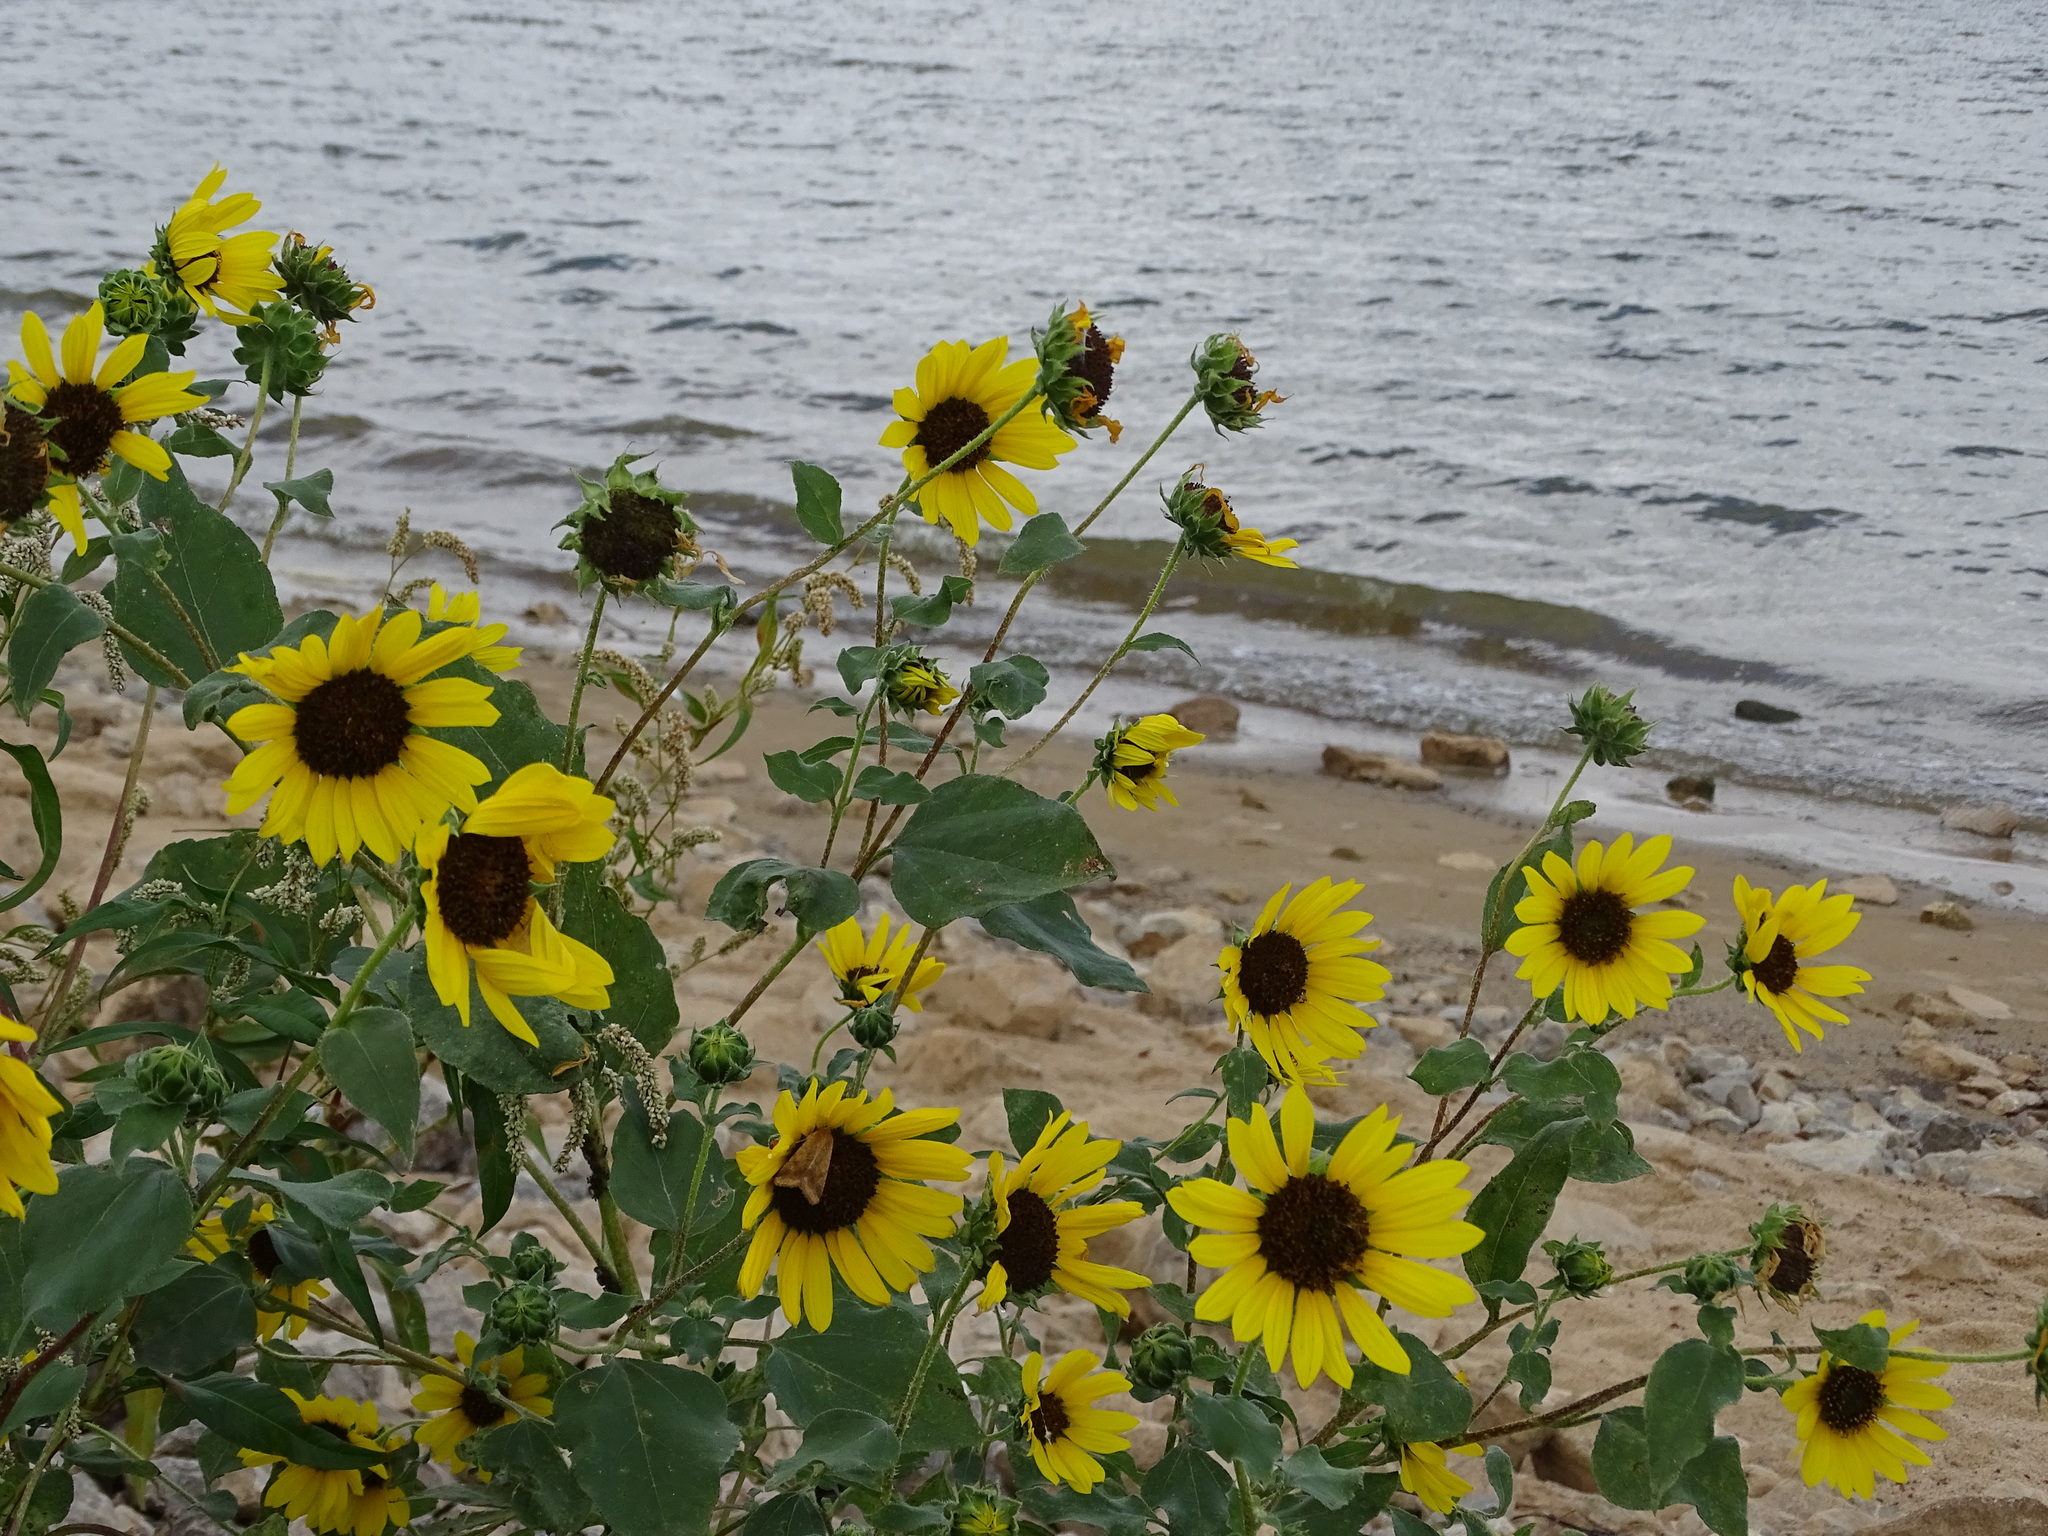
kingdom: Plantae
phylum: Tracheophyta
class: Magnoliopsida
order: Asterales
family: Asteraceae
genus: Helianthus
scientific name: Helianthus annuus
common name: Sunflower
